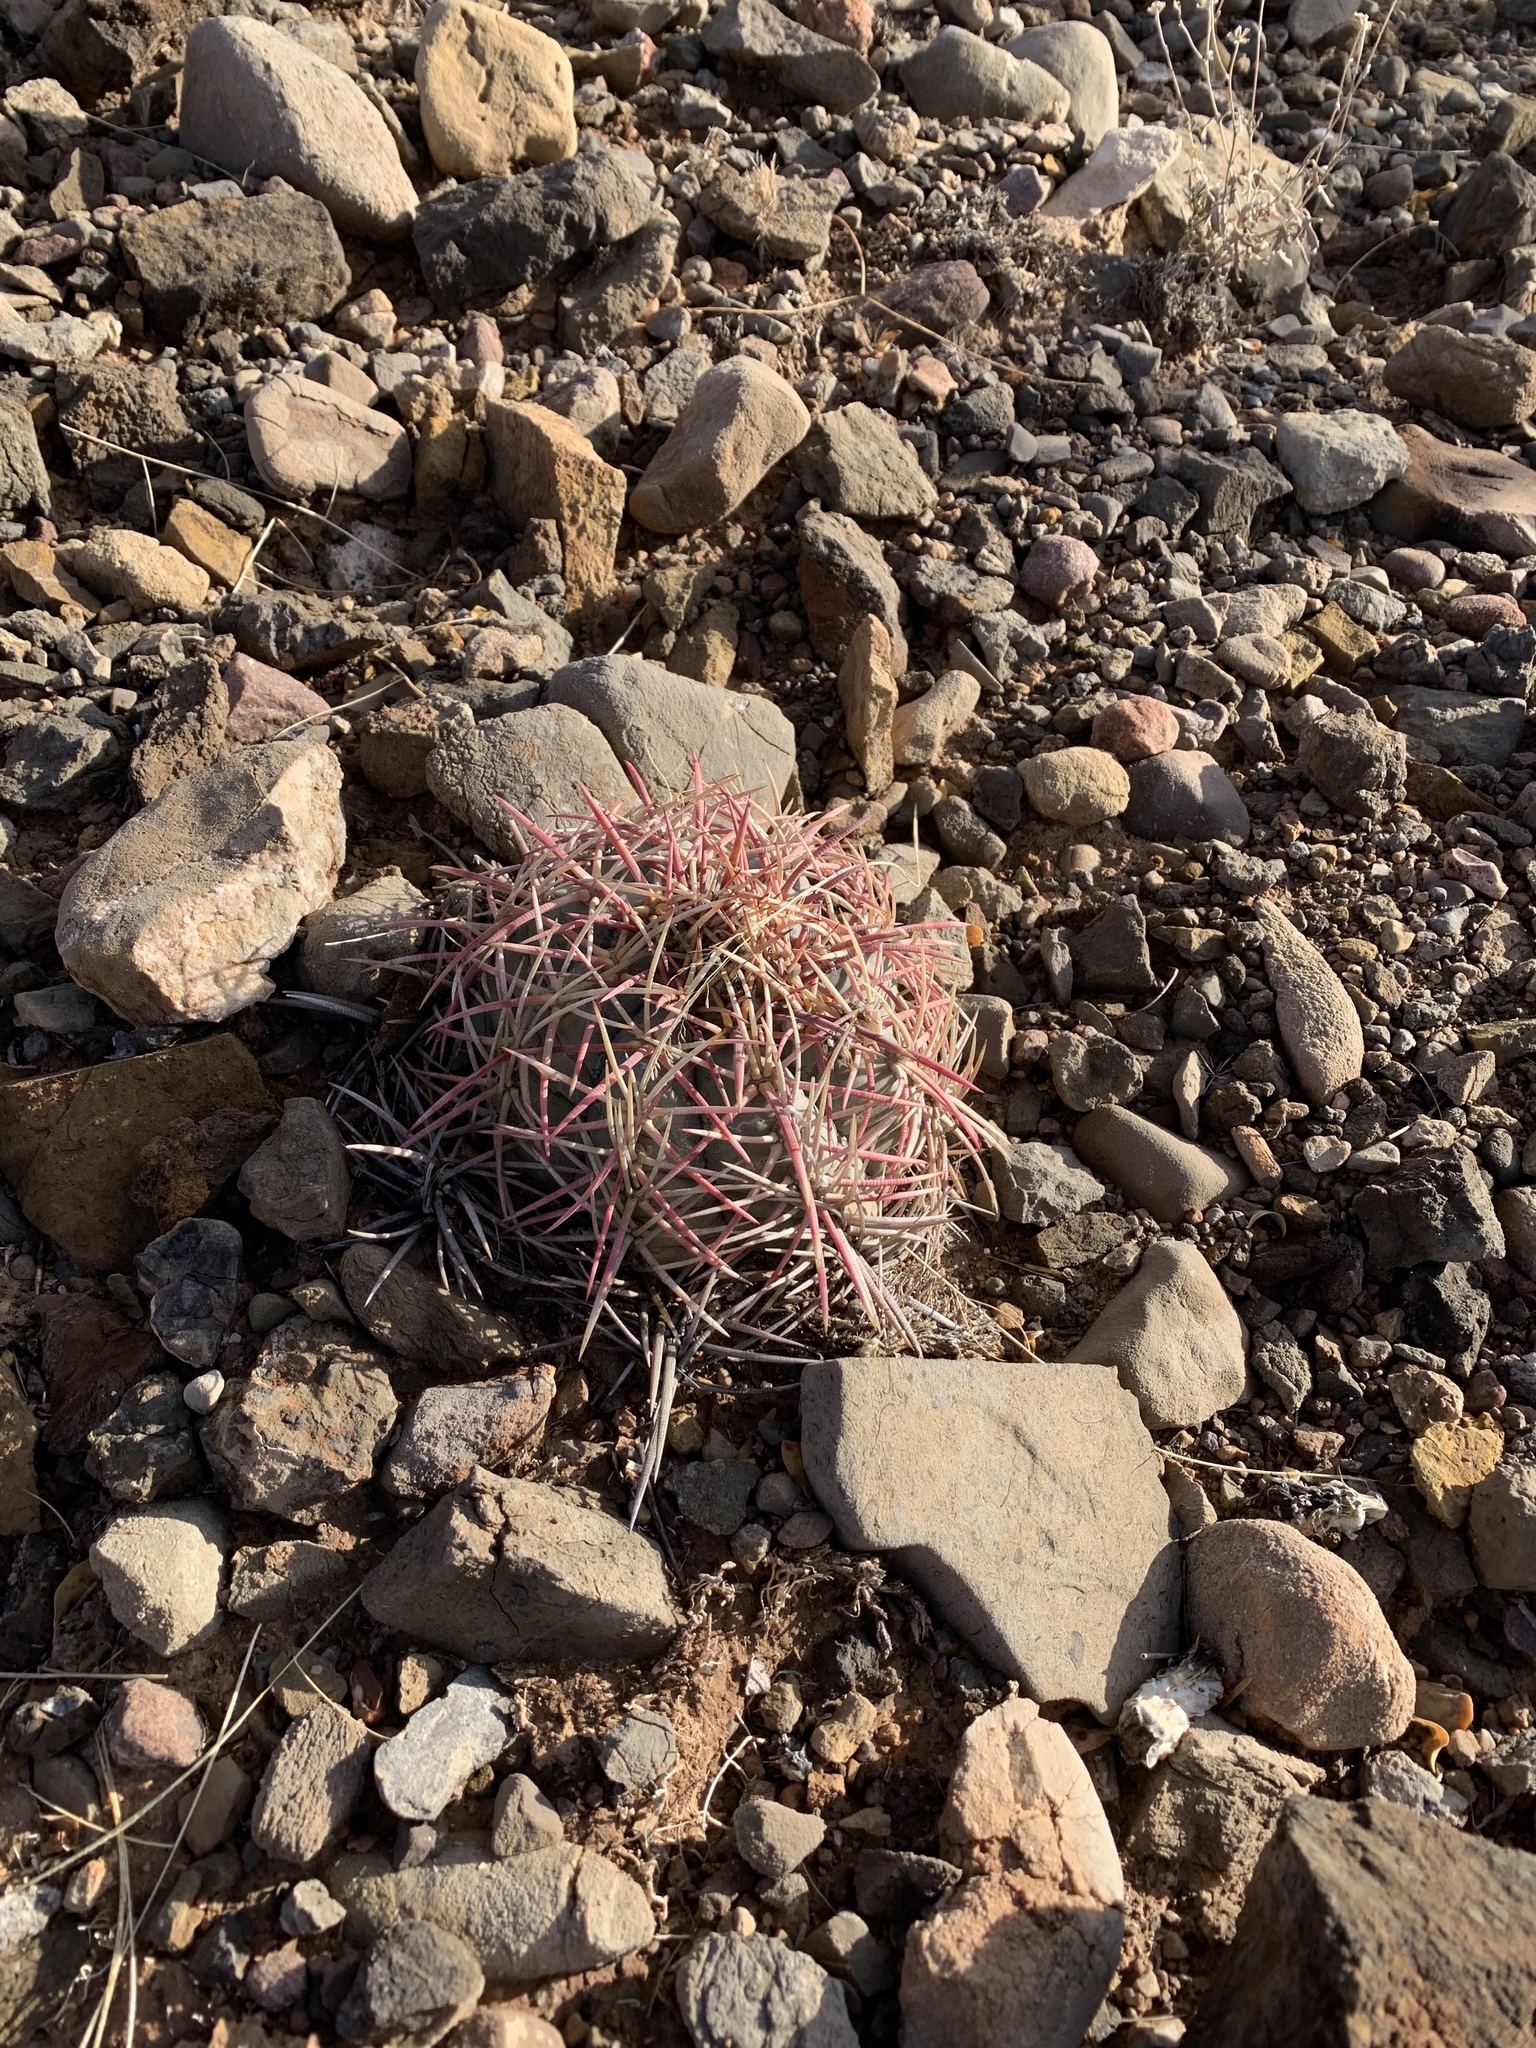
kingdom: Plantae
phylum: Tracheophyta
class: Magnoliopsida
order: Caryophyllales
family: Cactaceae
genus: Echinocactus
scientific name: Echinocactus horizonthalonius
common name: Devilshead
